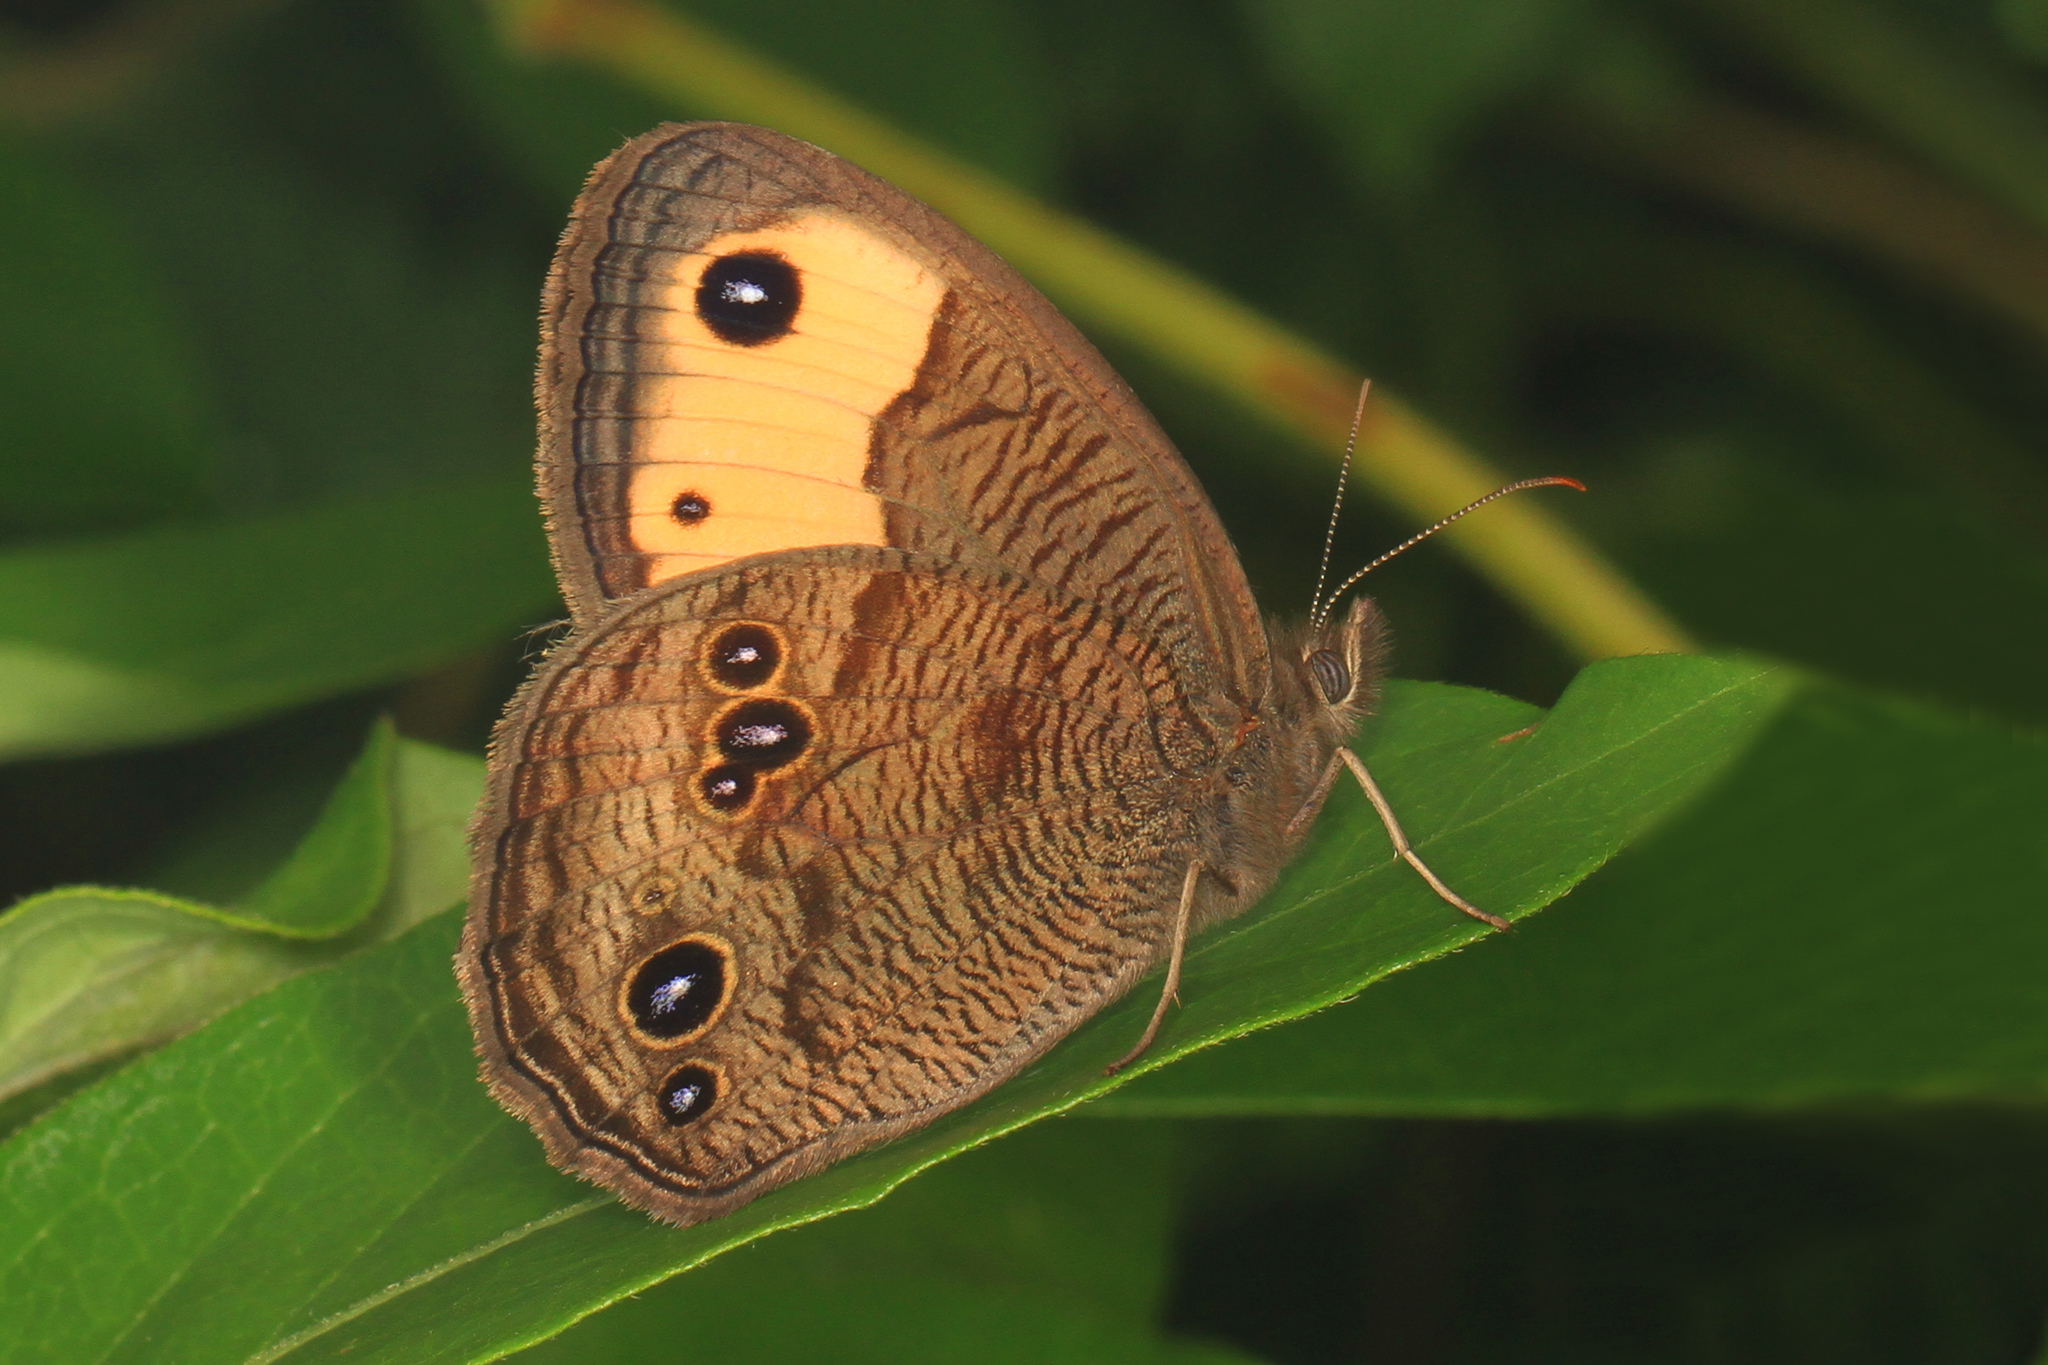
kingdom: Animalia
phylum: Arthropoda
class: Insecta
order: Lepidoptera
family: Nymphalidae
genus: Cercyonis
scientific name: Cercyonis pegala
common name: Common wood-nymph
